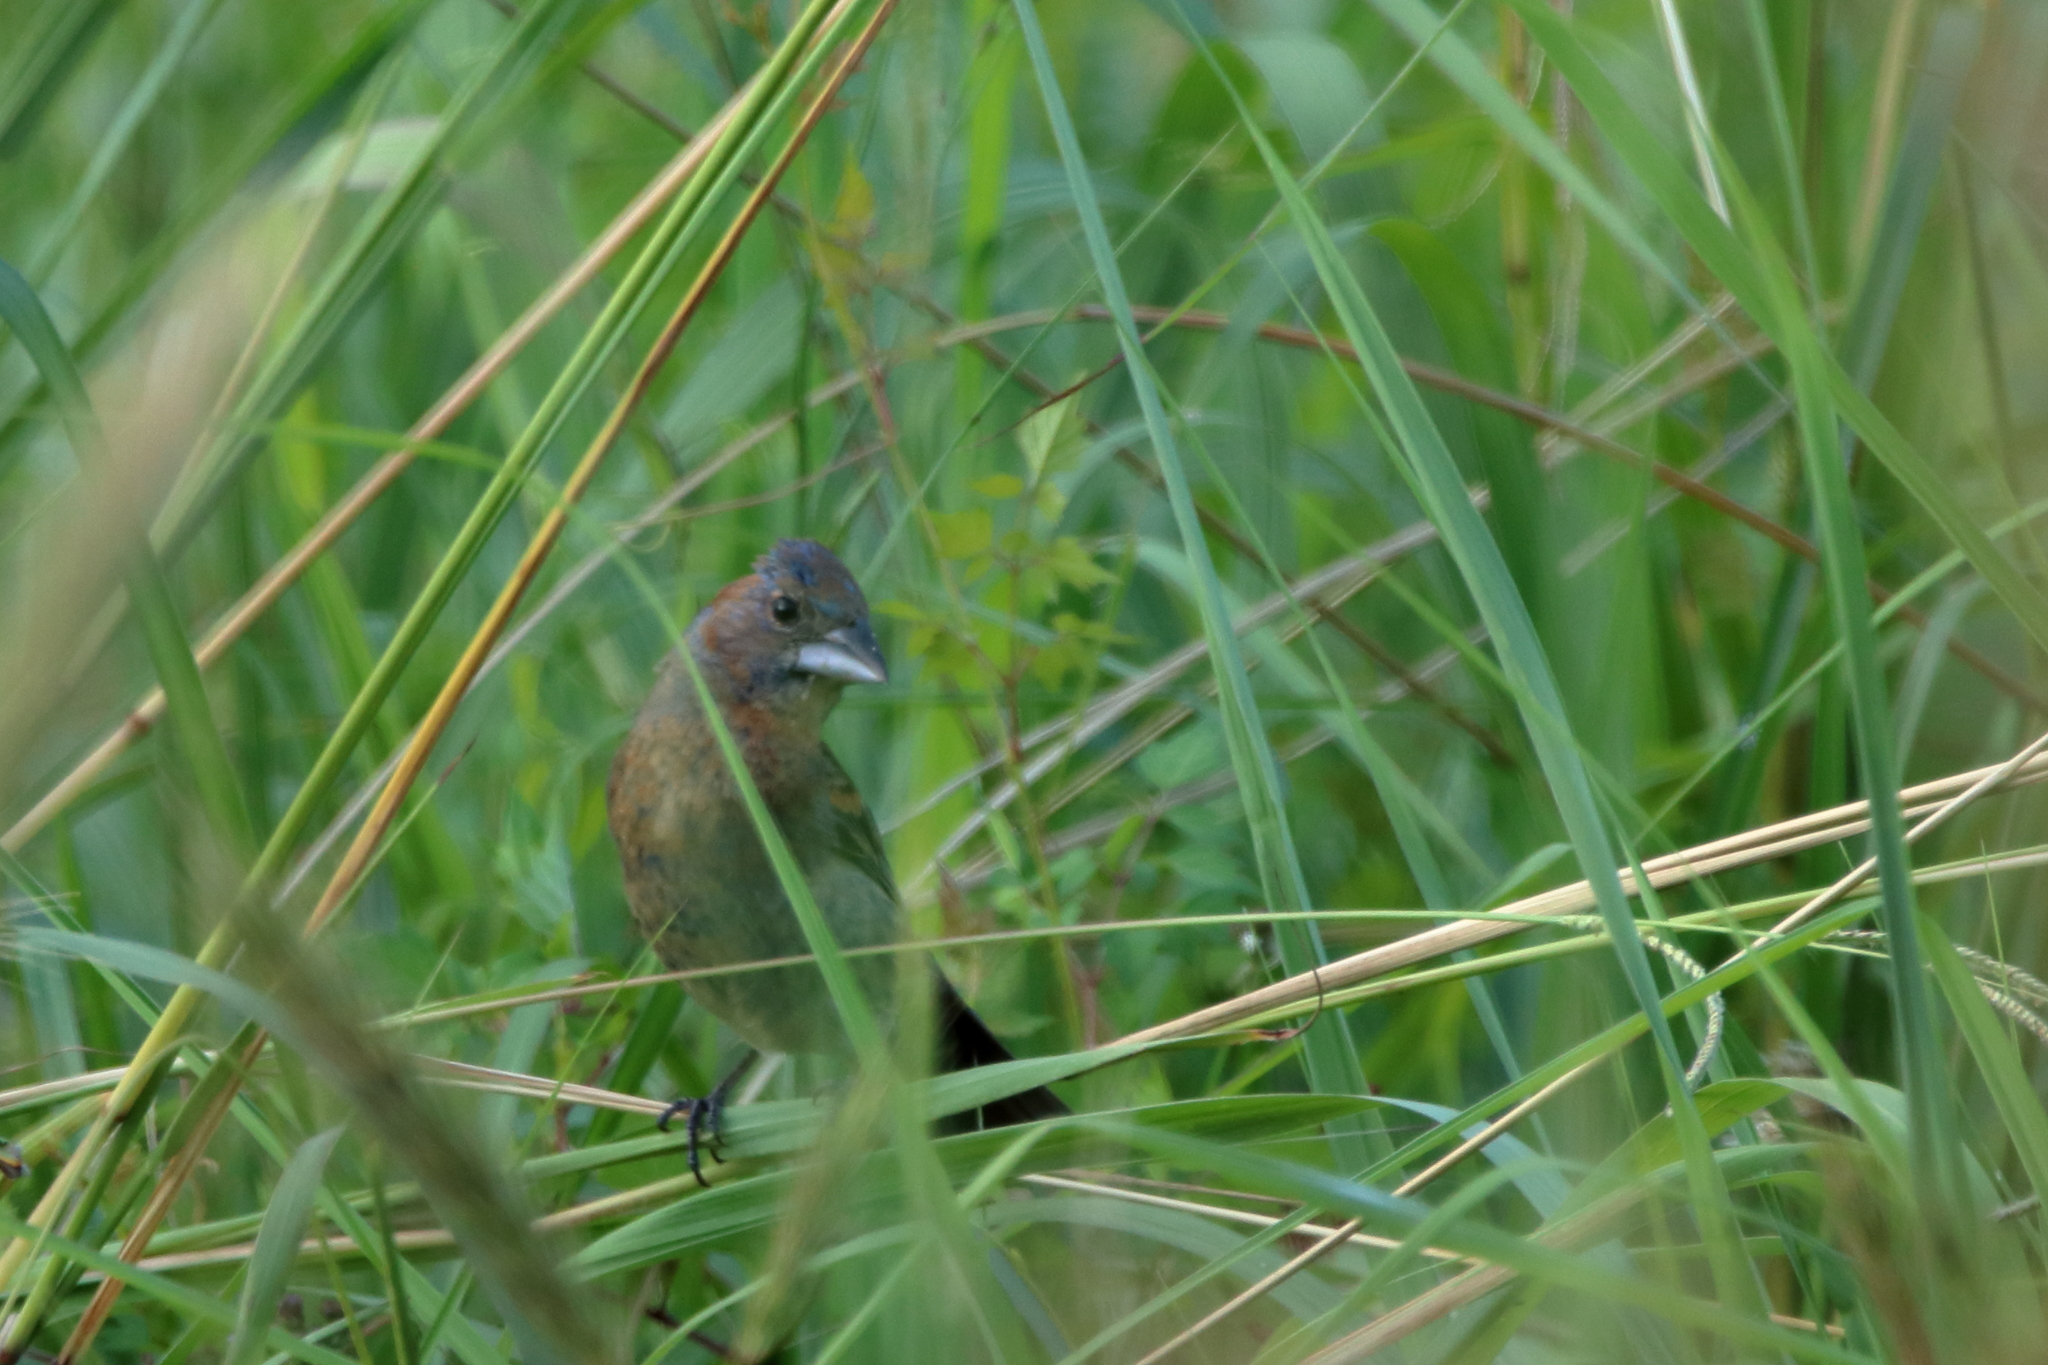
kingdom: Animalia
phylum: Chordata
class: Aves
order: Passeriformes
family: Cardinalidae
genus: Passerina
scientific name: Passerina caerulea
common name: Blue grosbeak
